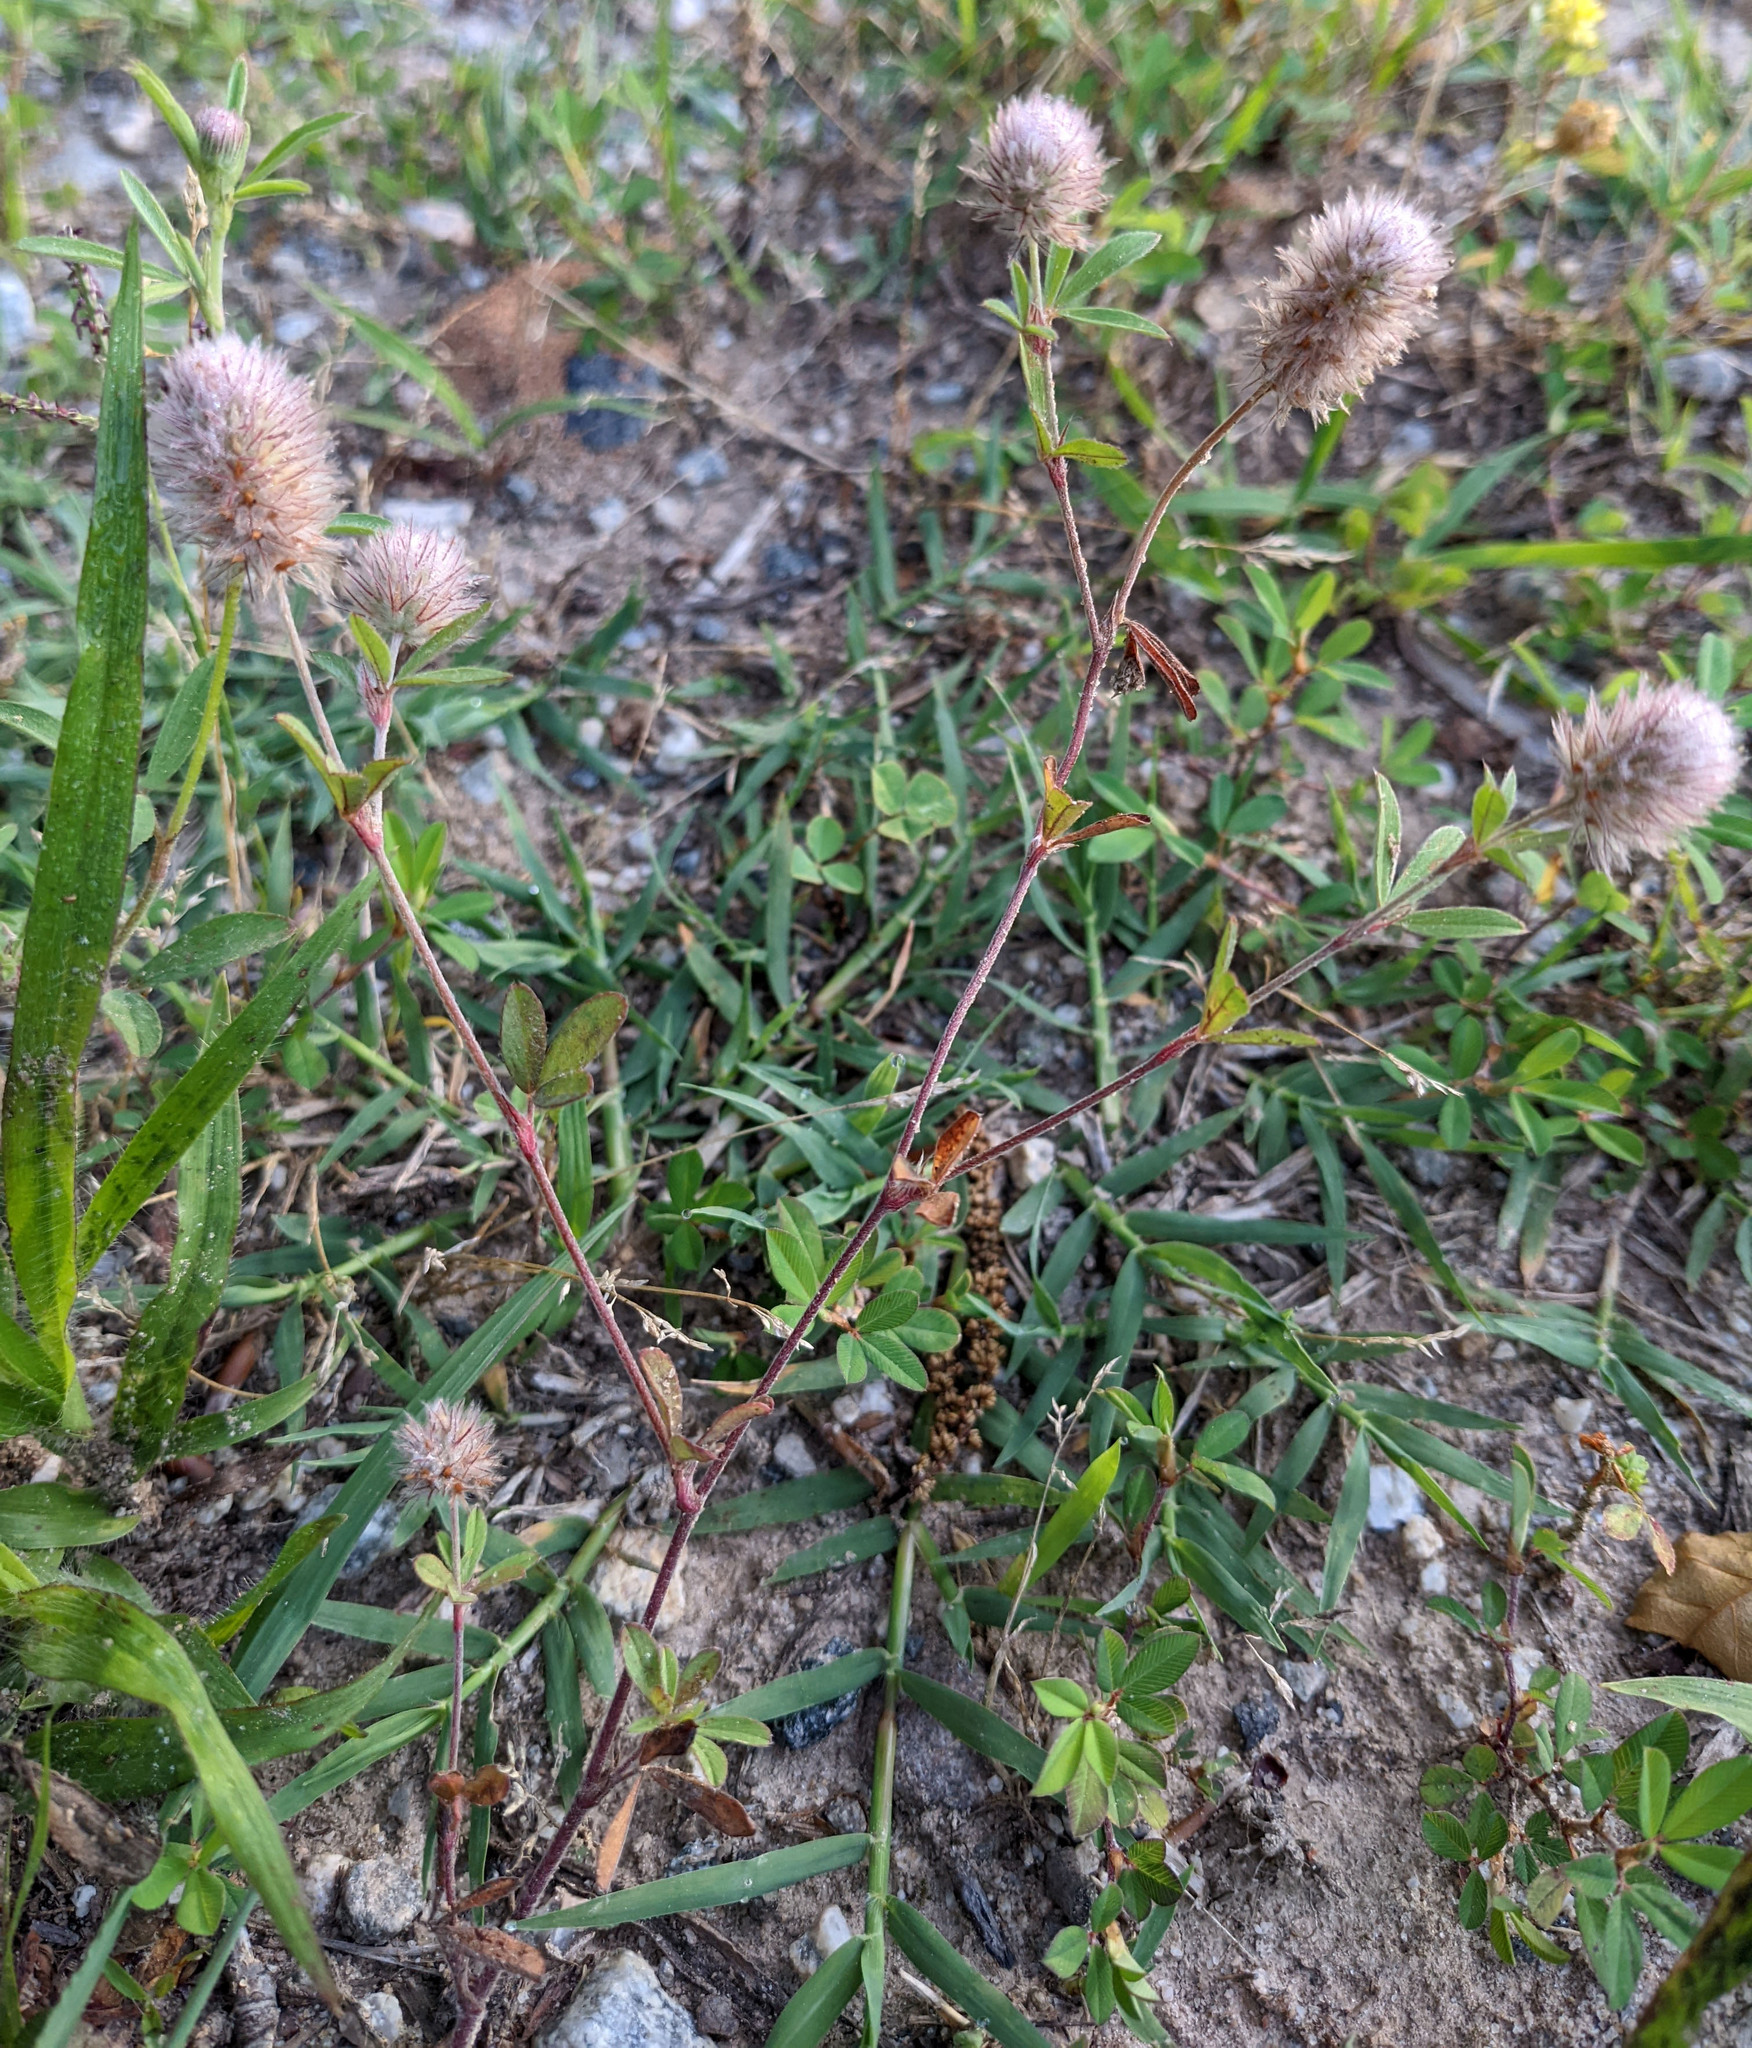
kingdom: Plantae
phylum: Tracheophyta
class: Magnoliopsida
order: Fabales
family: Fabaceae
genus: Trifolium
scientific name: Trifolium arvense
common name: Hare's-foot clover
